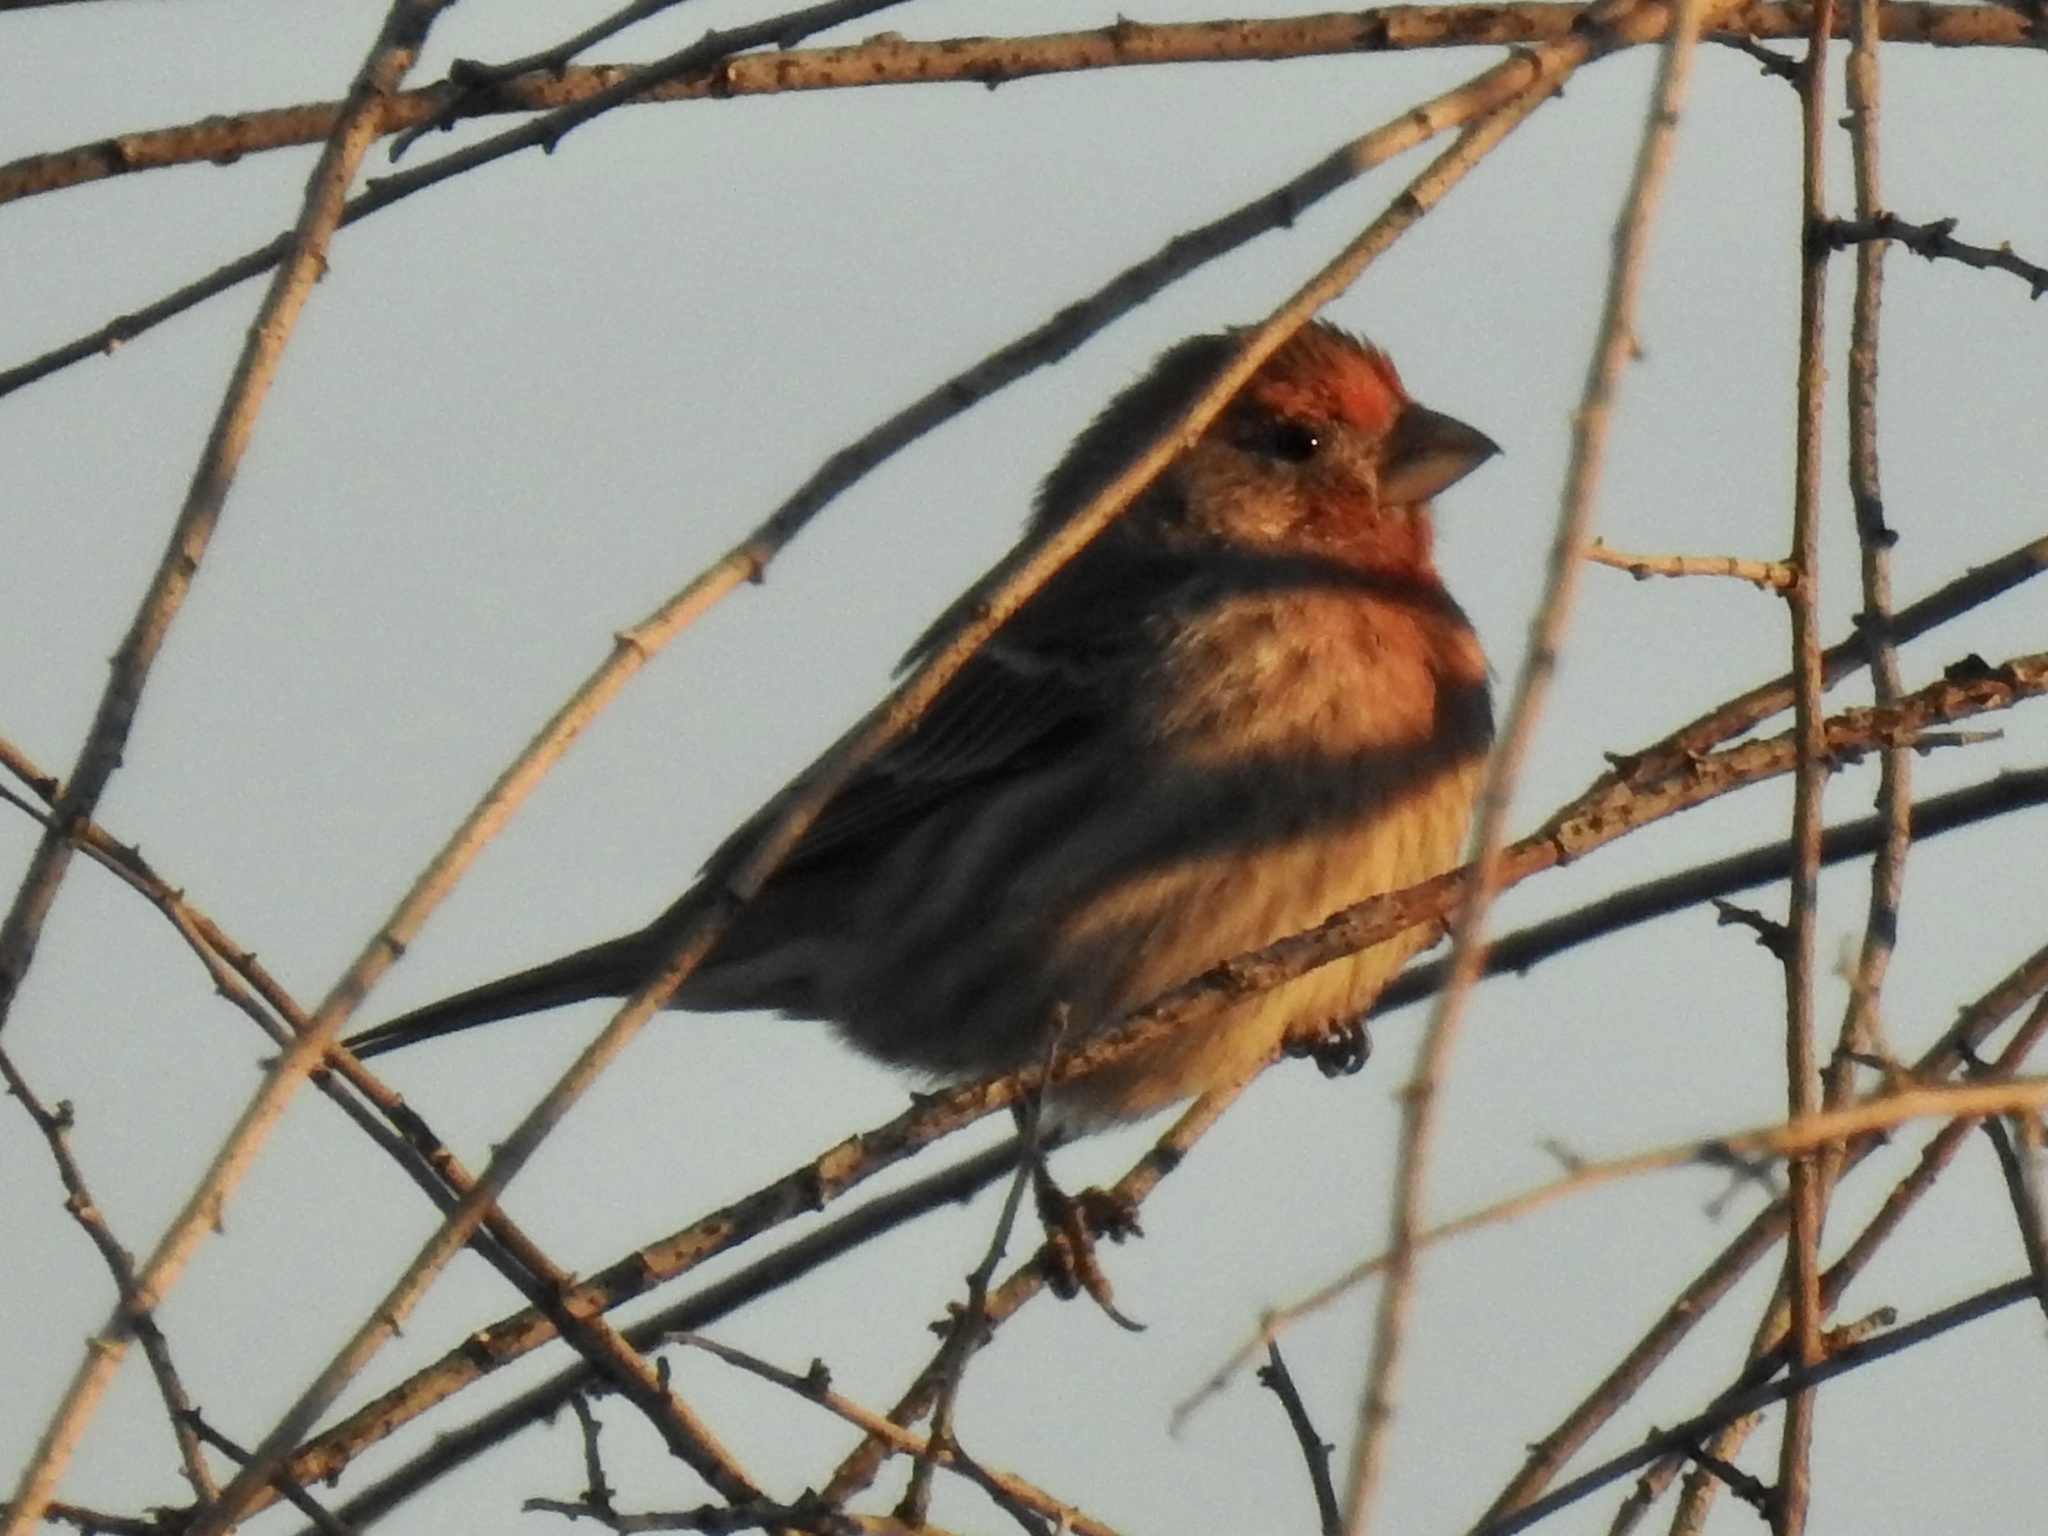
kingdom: Animalia
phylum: Chordata
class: Aves
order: Passeriformes
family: Fringillidae
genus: Haemorhous
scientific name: Haemorhous mexicanus
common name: House finch
